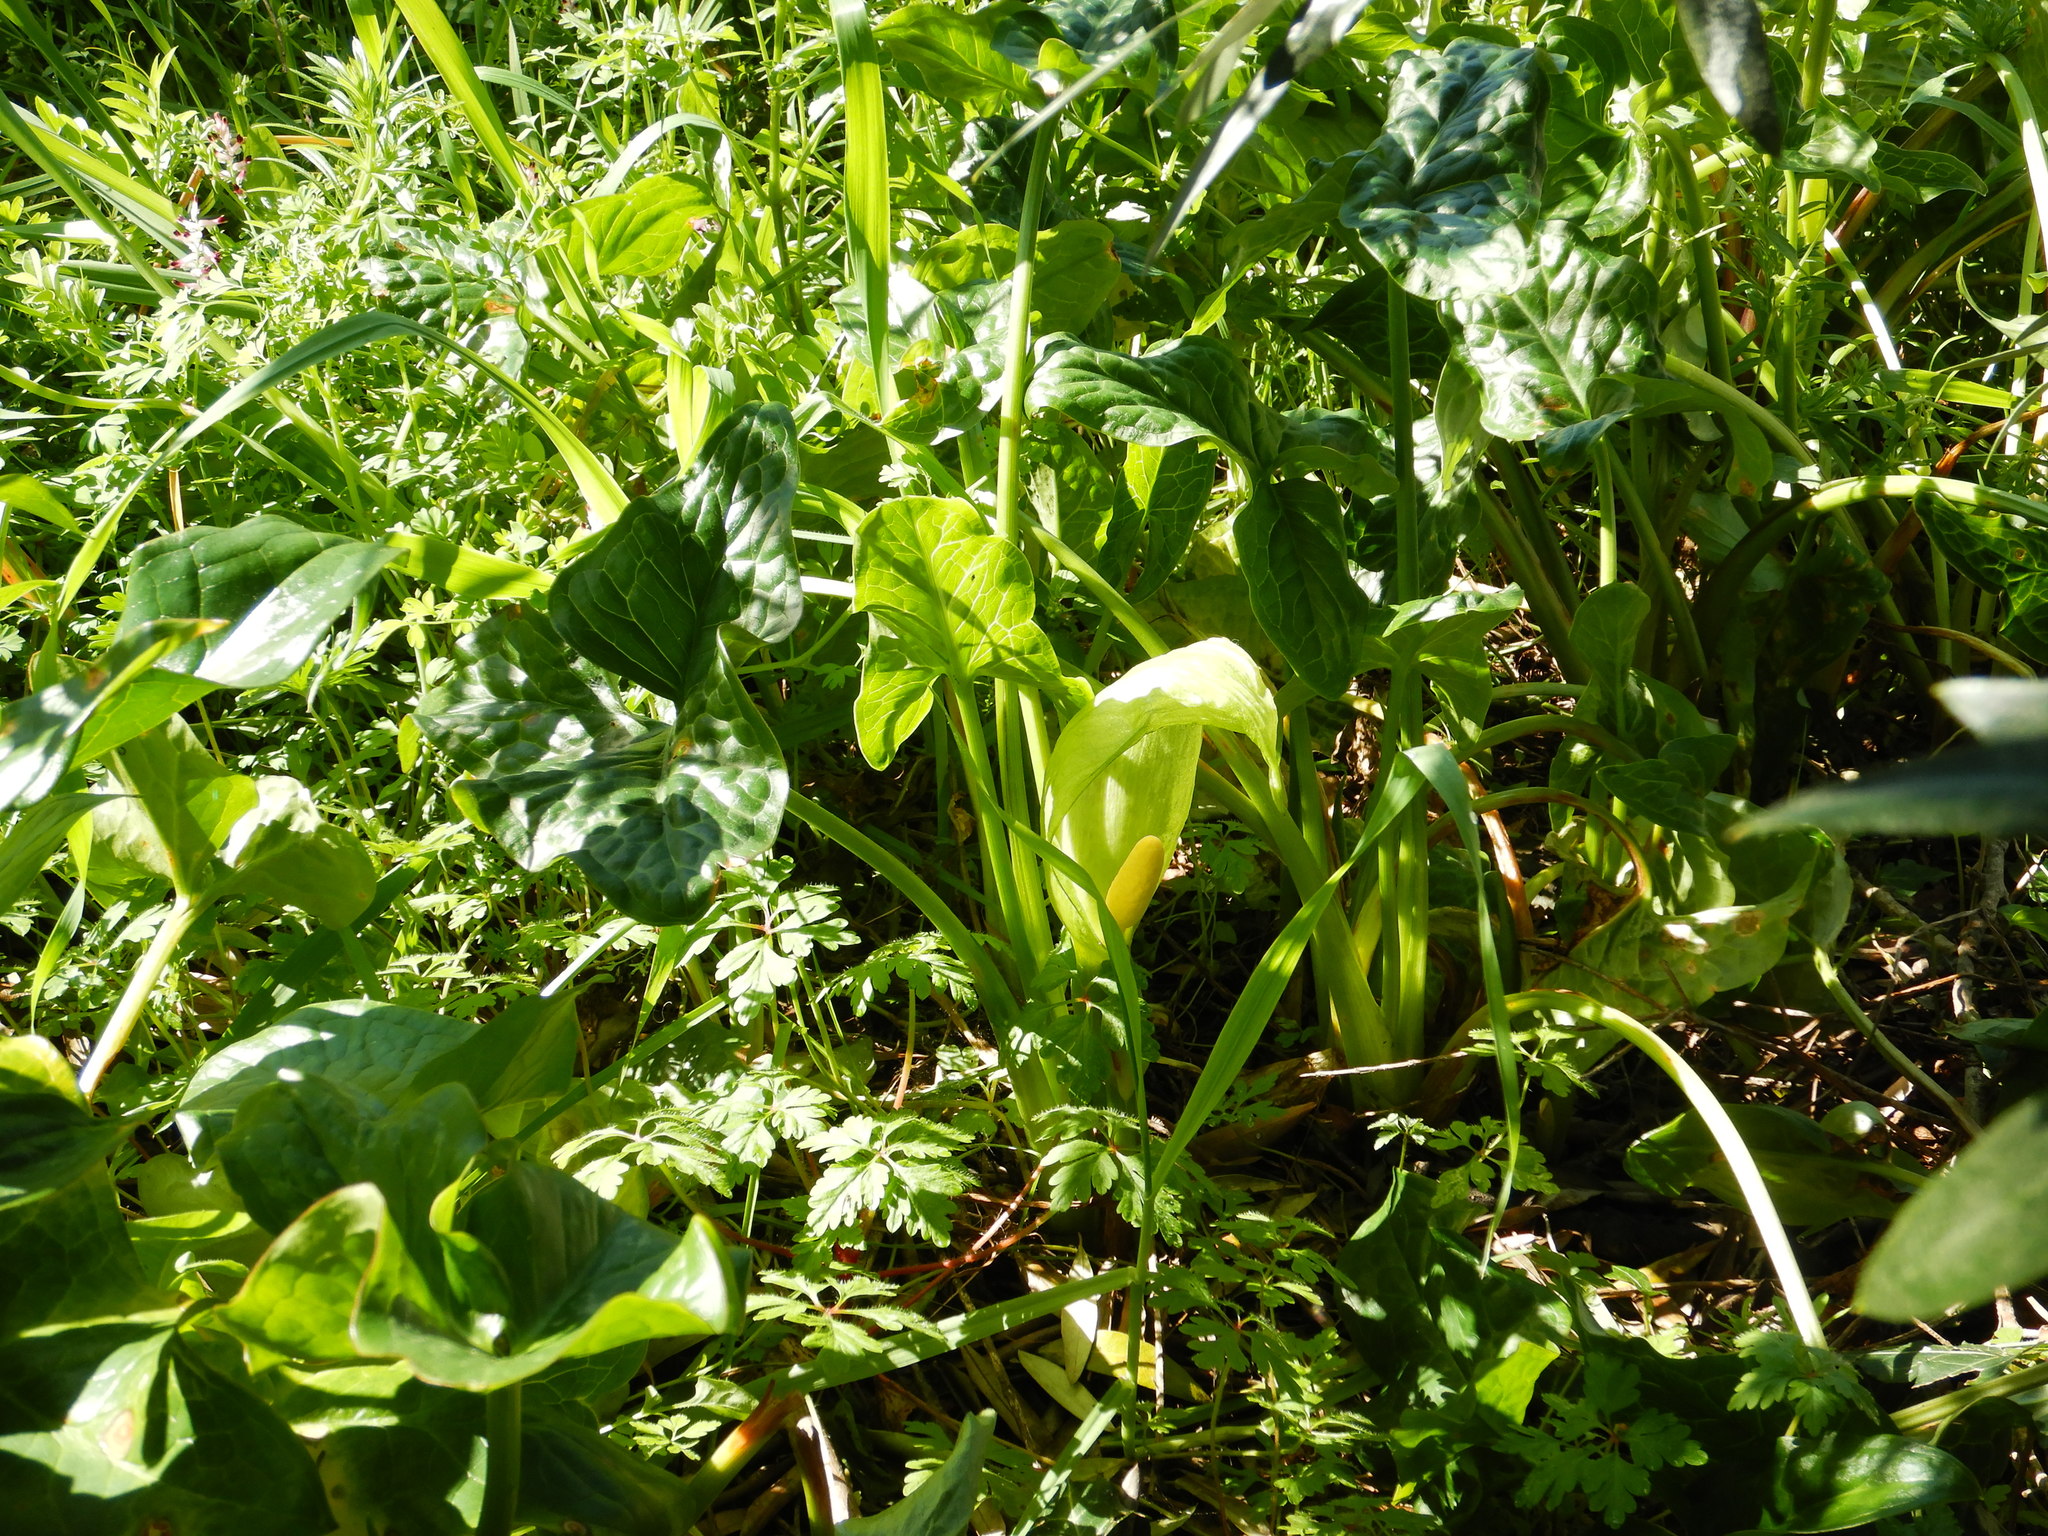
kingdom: Plantae
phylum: Tracheophyta
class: Liliopsida
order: Alismatales
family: Araceae
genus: Arum
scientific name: Arum italicum
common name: Italian lords-and-ladies
